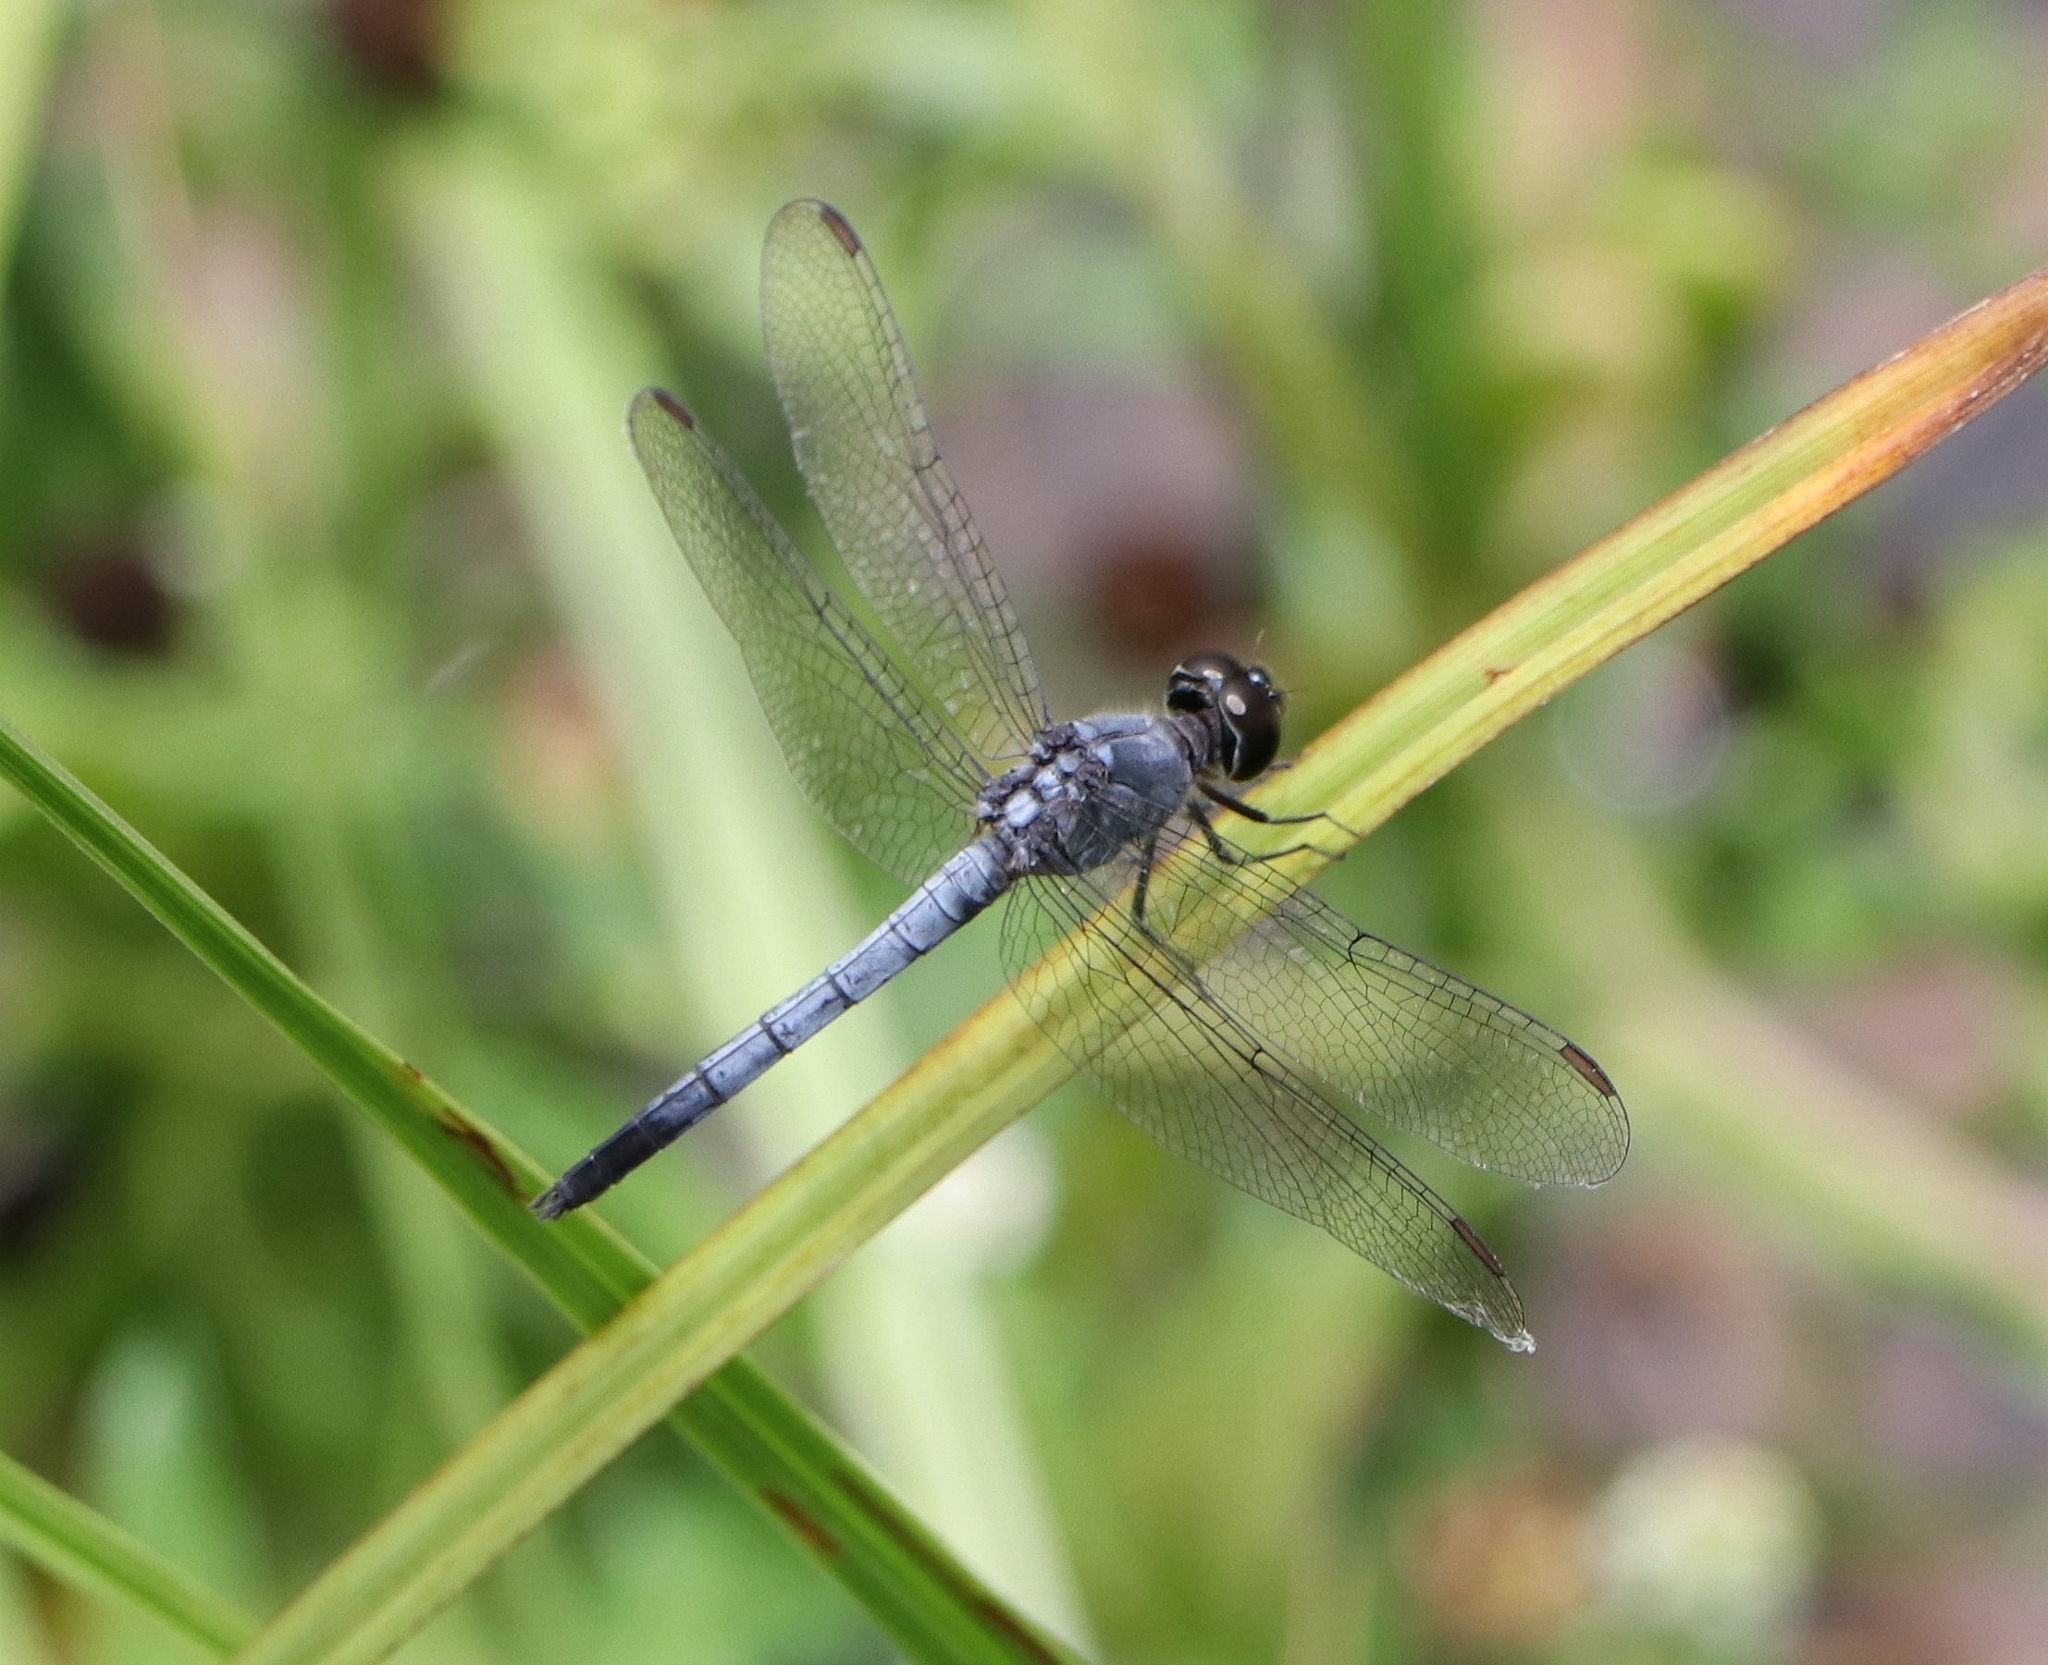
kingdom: Animalia
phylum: Arthropoda
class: Insecta
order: Odonata
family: Libellulidae
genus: Brachydiplax
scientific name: Brachydiplax sobrina
